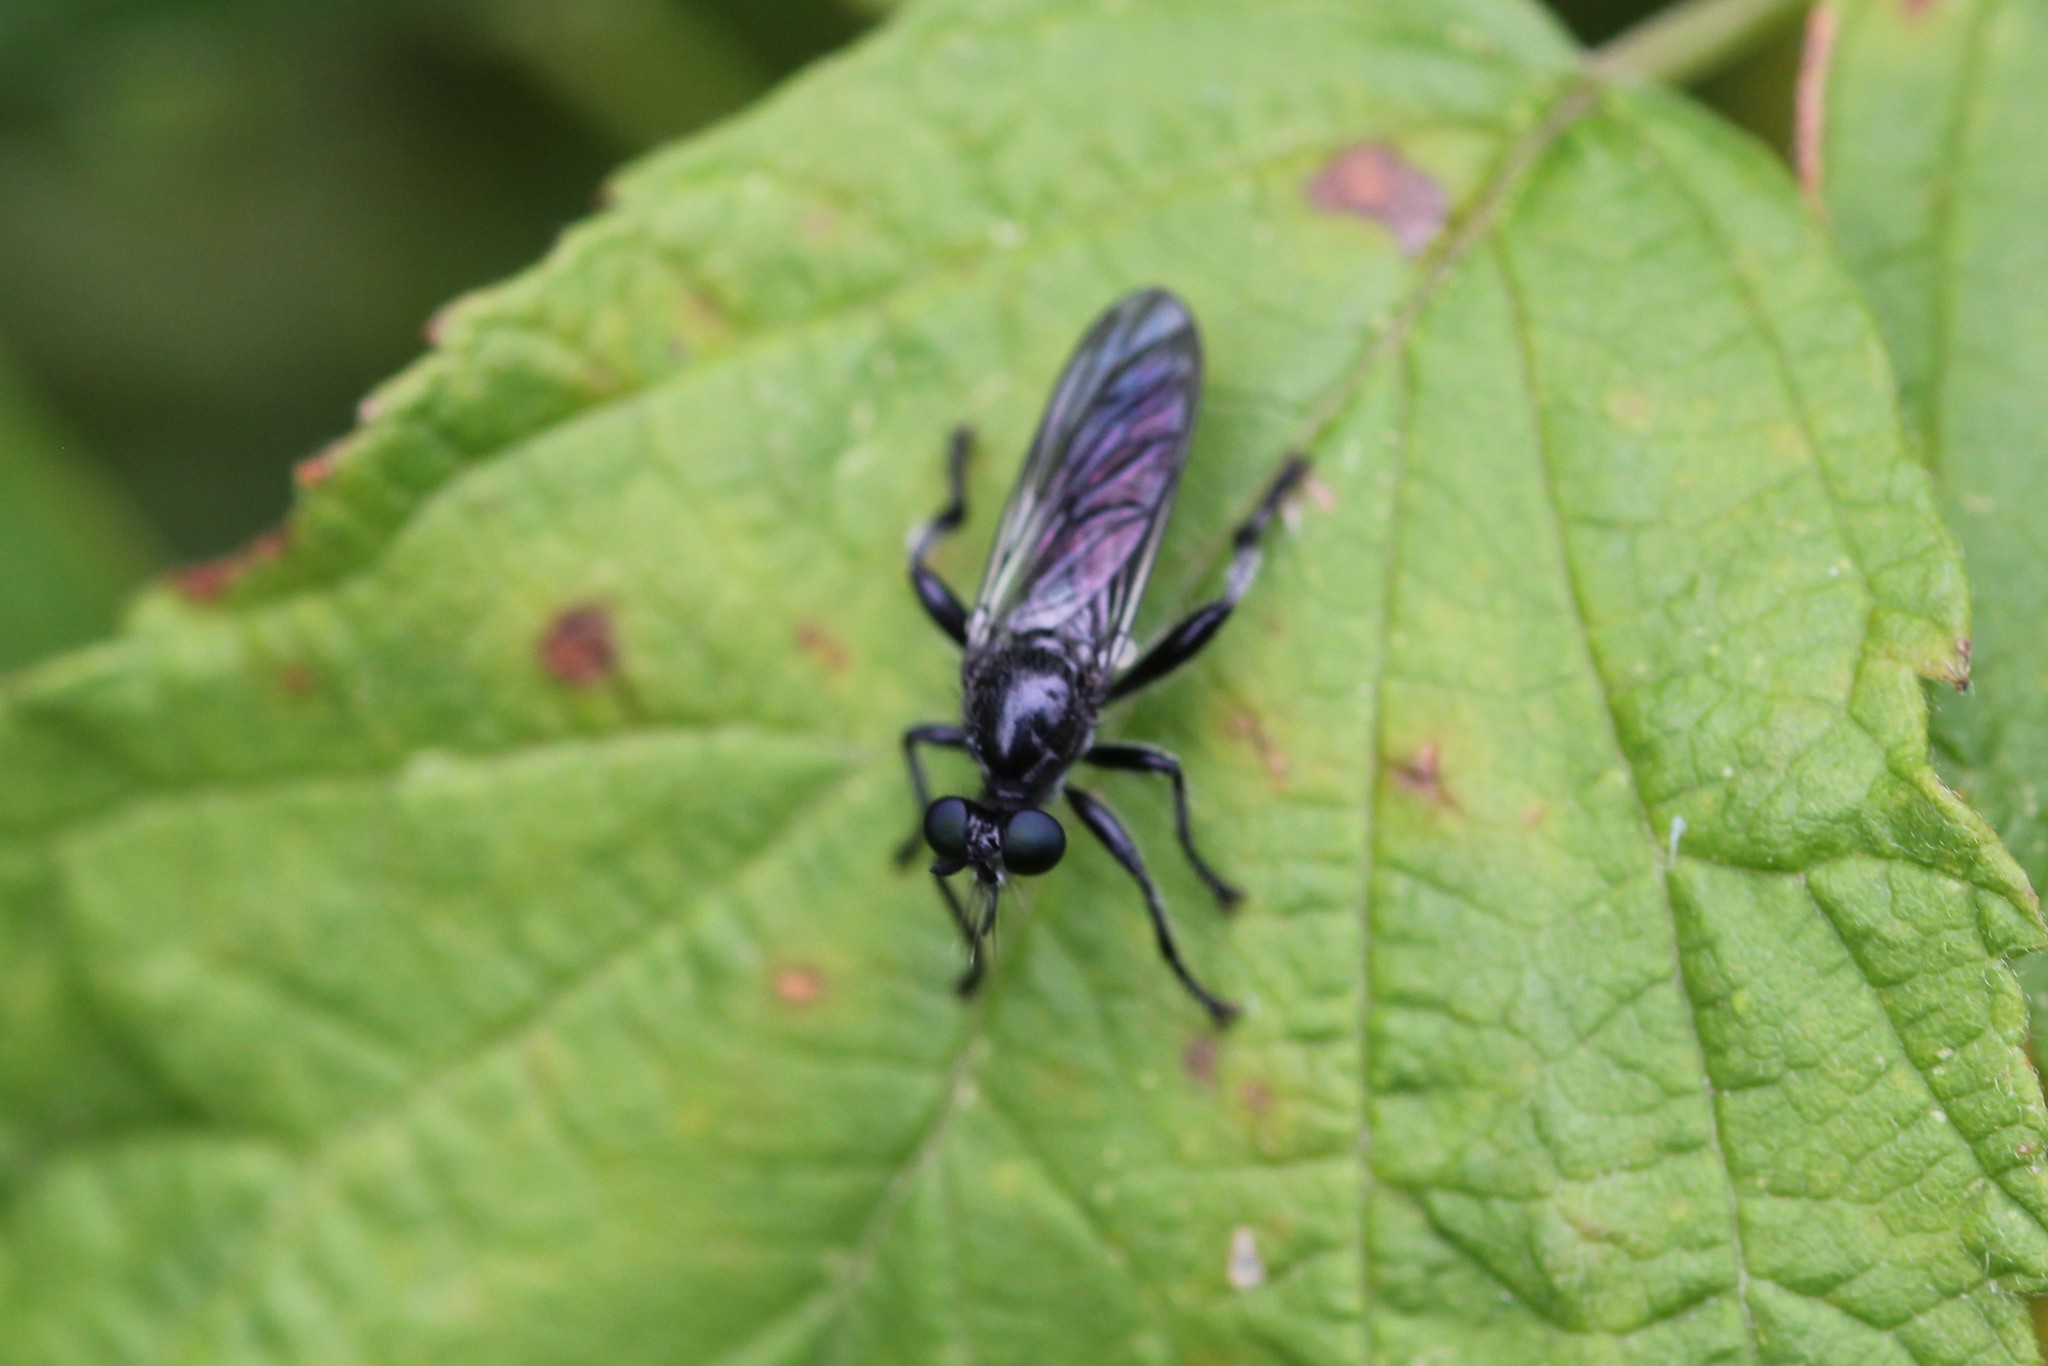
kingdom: Animalia
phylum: Arthropoda
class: Insecta
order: Diptera
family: Asilidae
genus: Laphria
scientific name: Laphria
